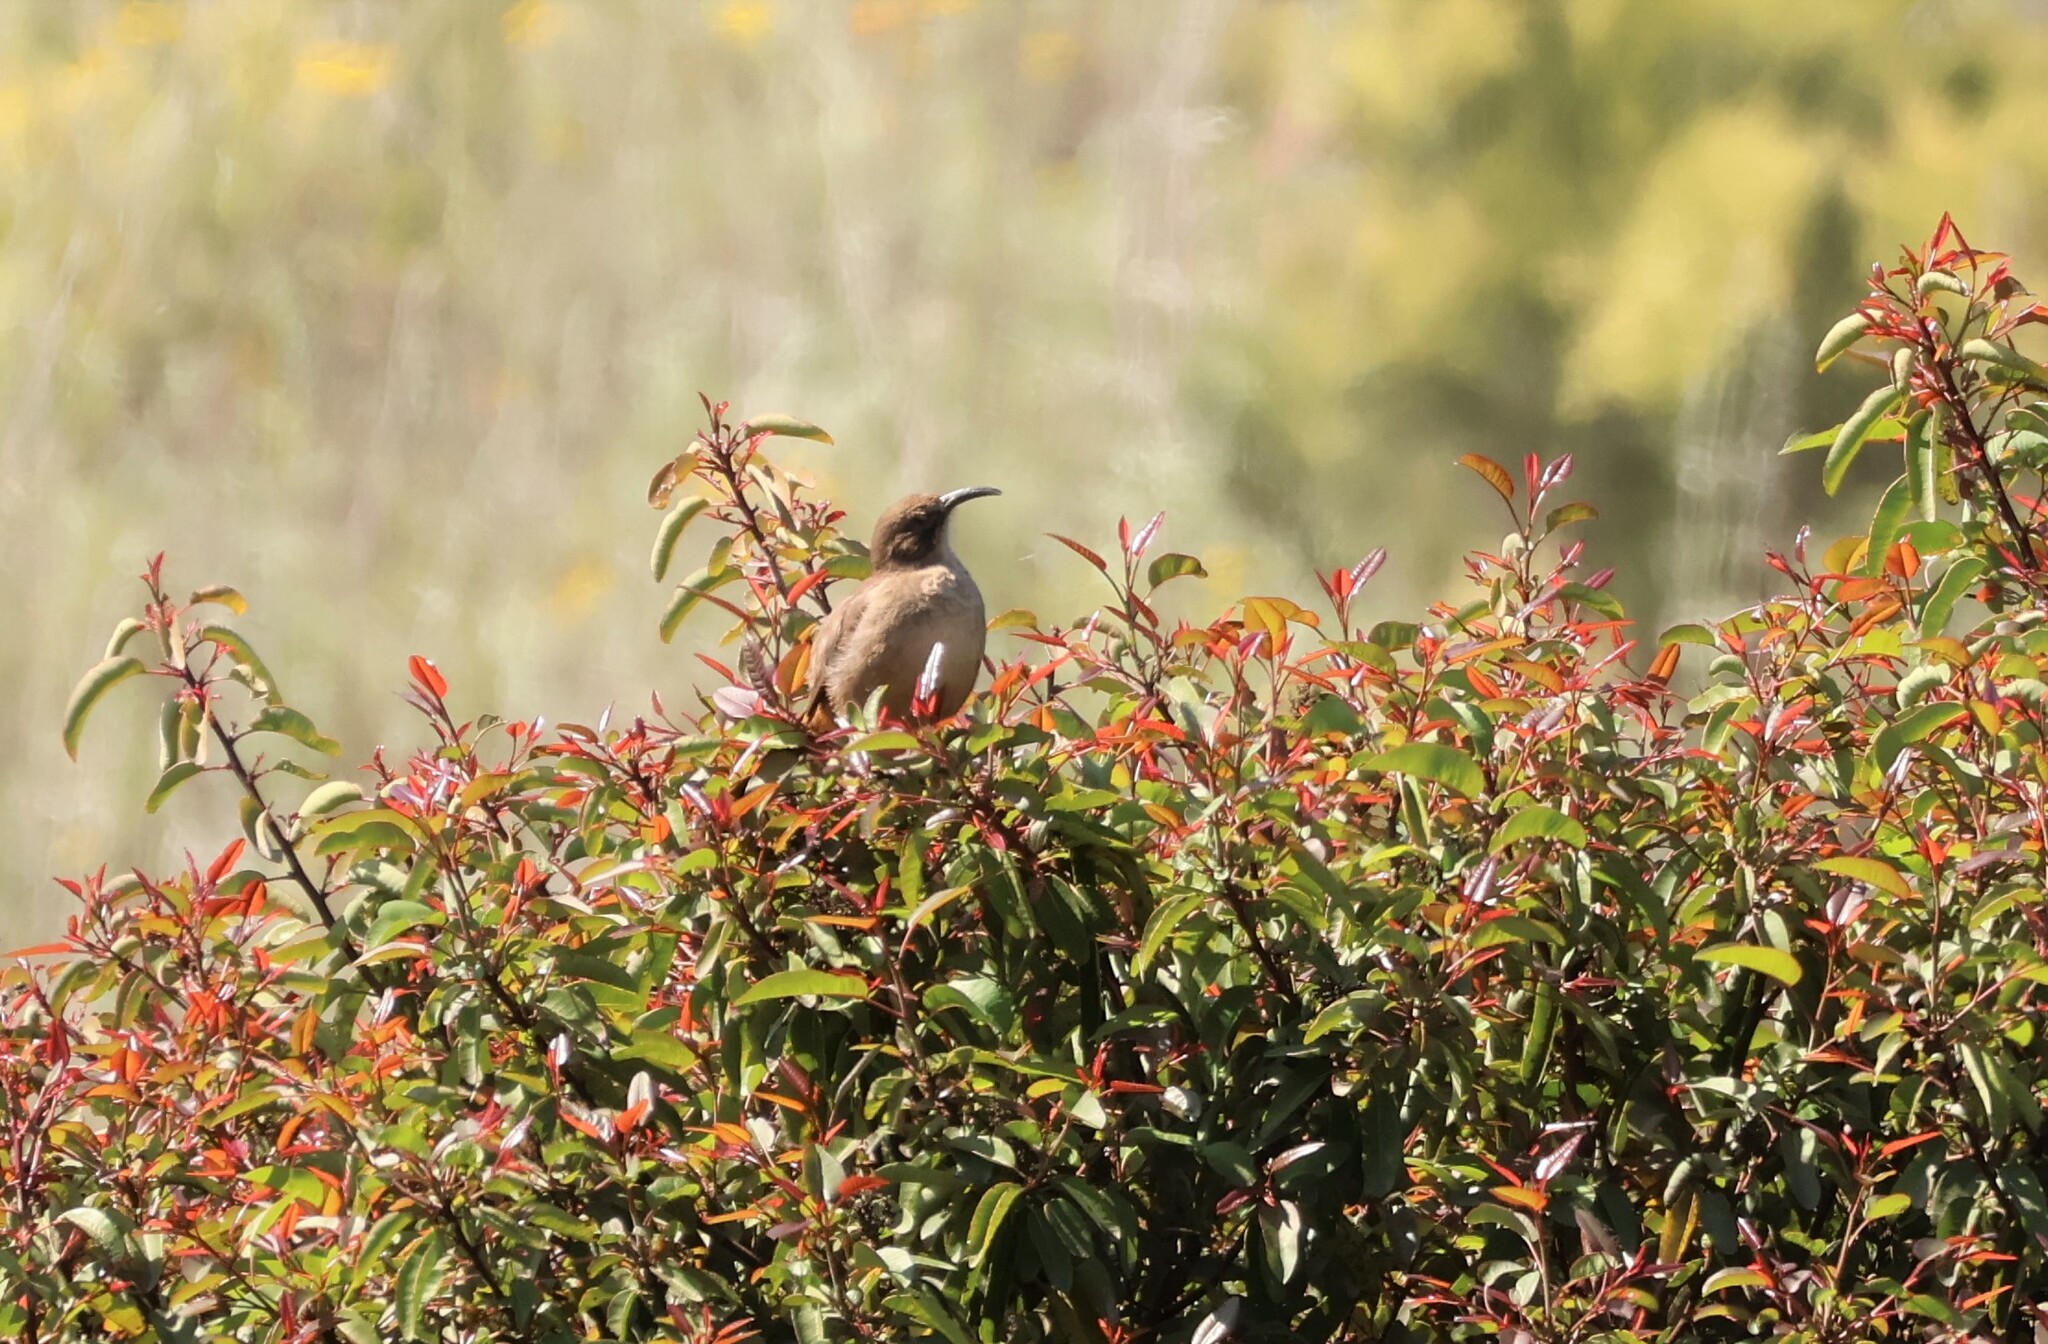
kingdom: Animalia
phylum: Chordata
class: Aves
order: Passeriformes
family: Mimidae
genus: Toxostoma
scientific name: Toxostoma redivivum
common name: California thrasher
